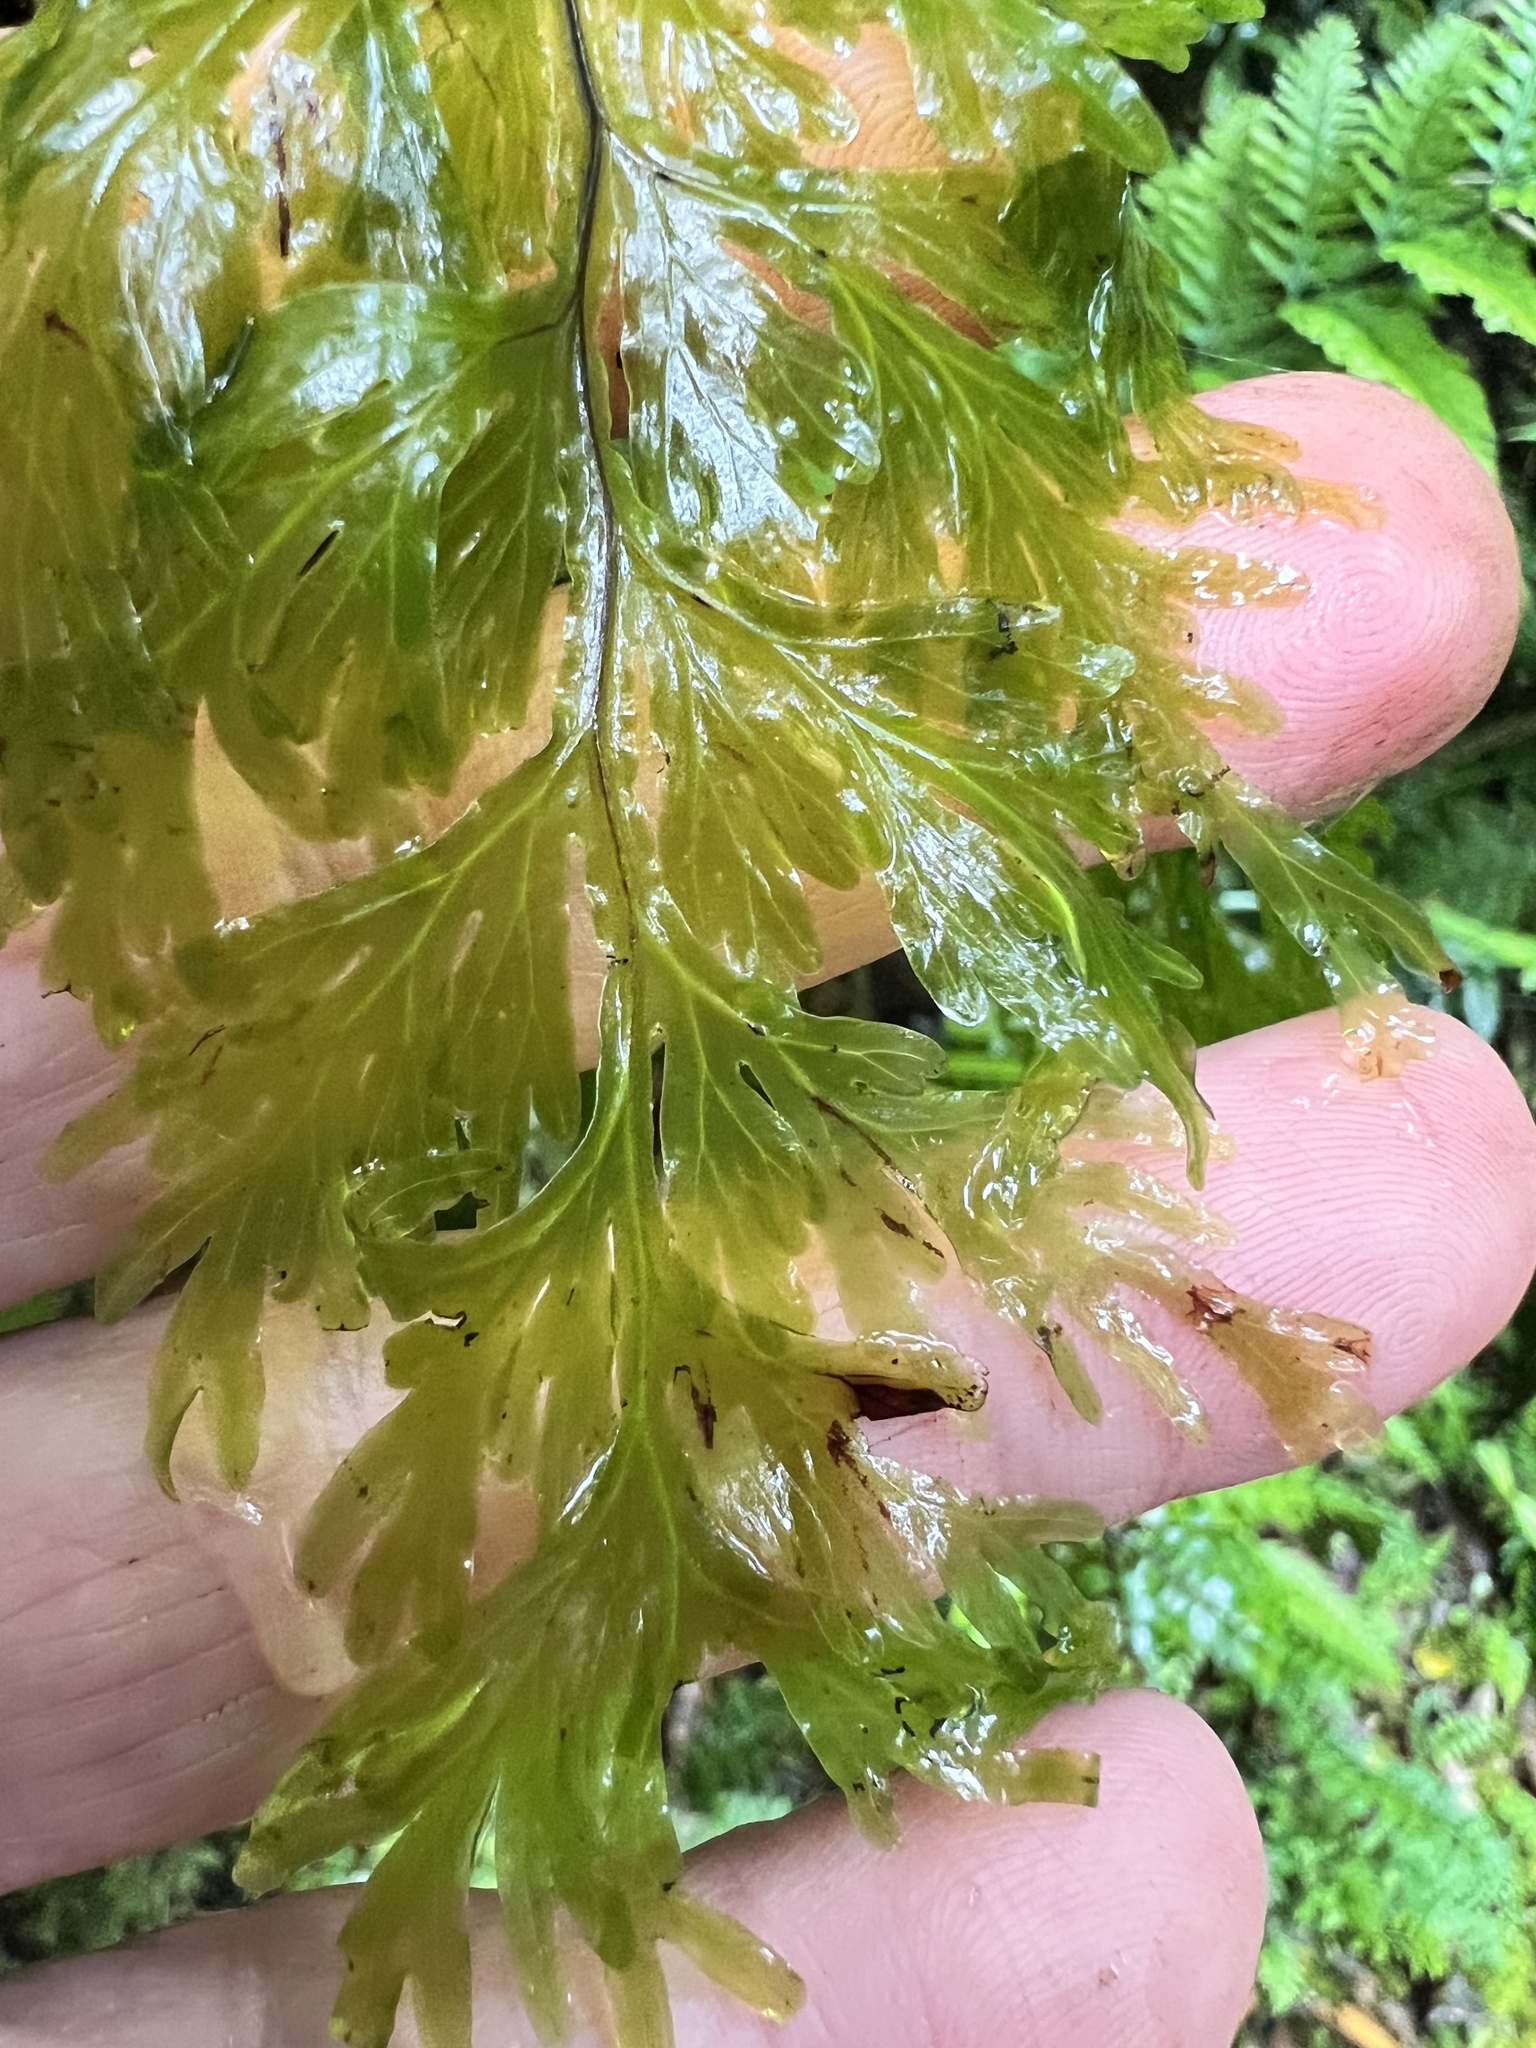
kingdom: Plantae
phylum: Tracheophyta
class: Polypodiopsida
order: Hymenophyllales
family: Hymenophyllaceae
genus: Hymenophyllum
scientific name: Hymenophyllum dilatatum
